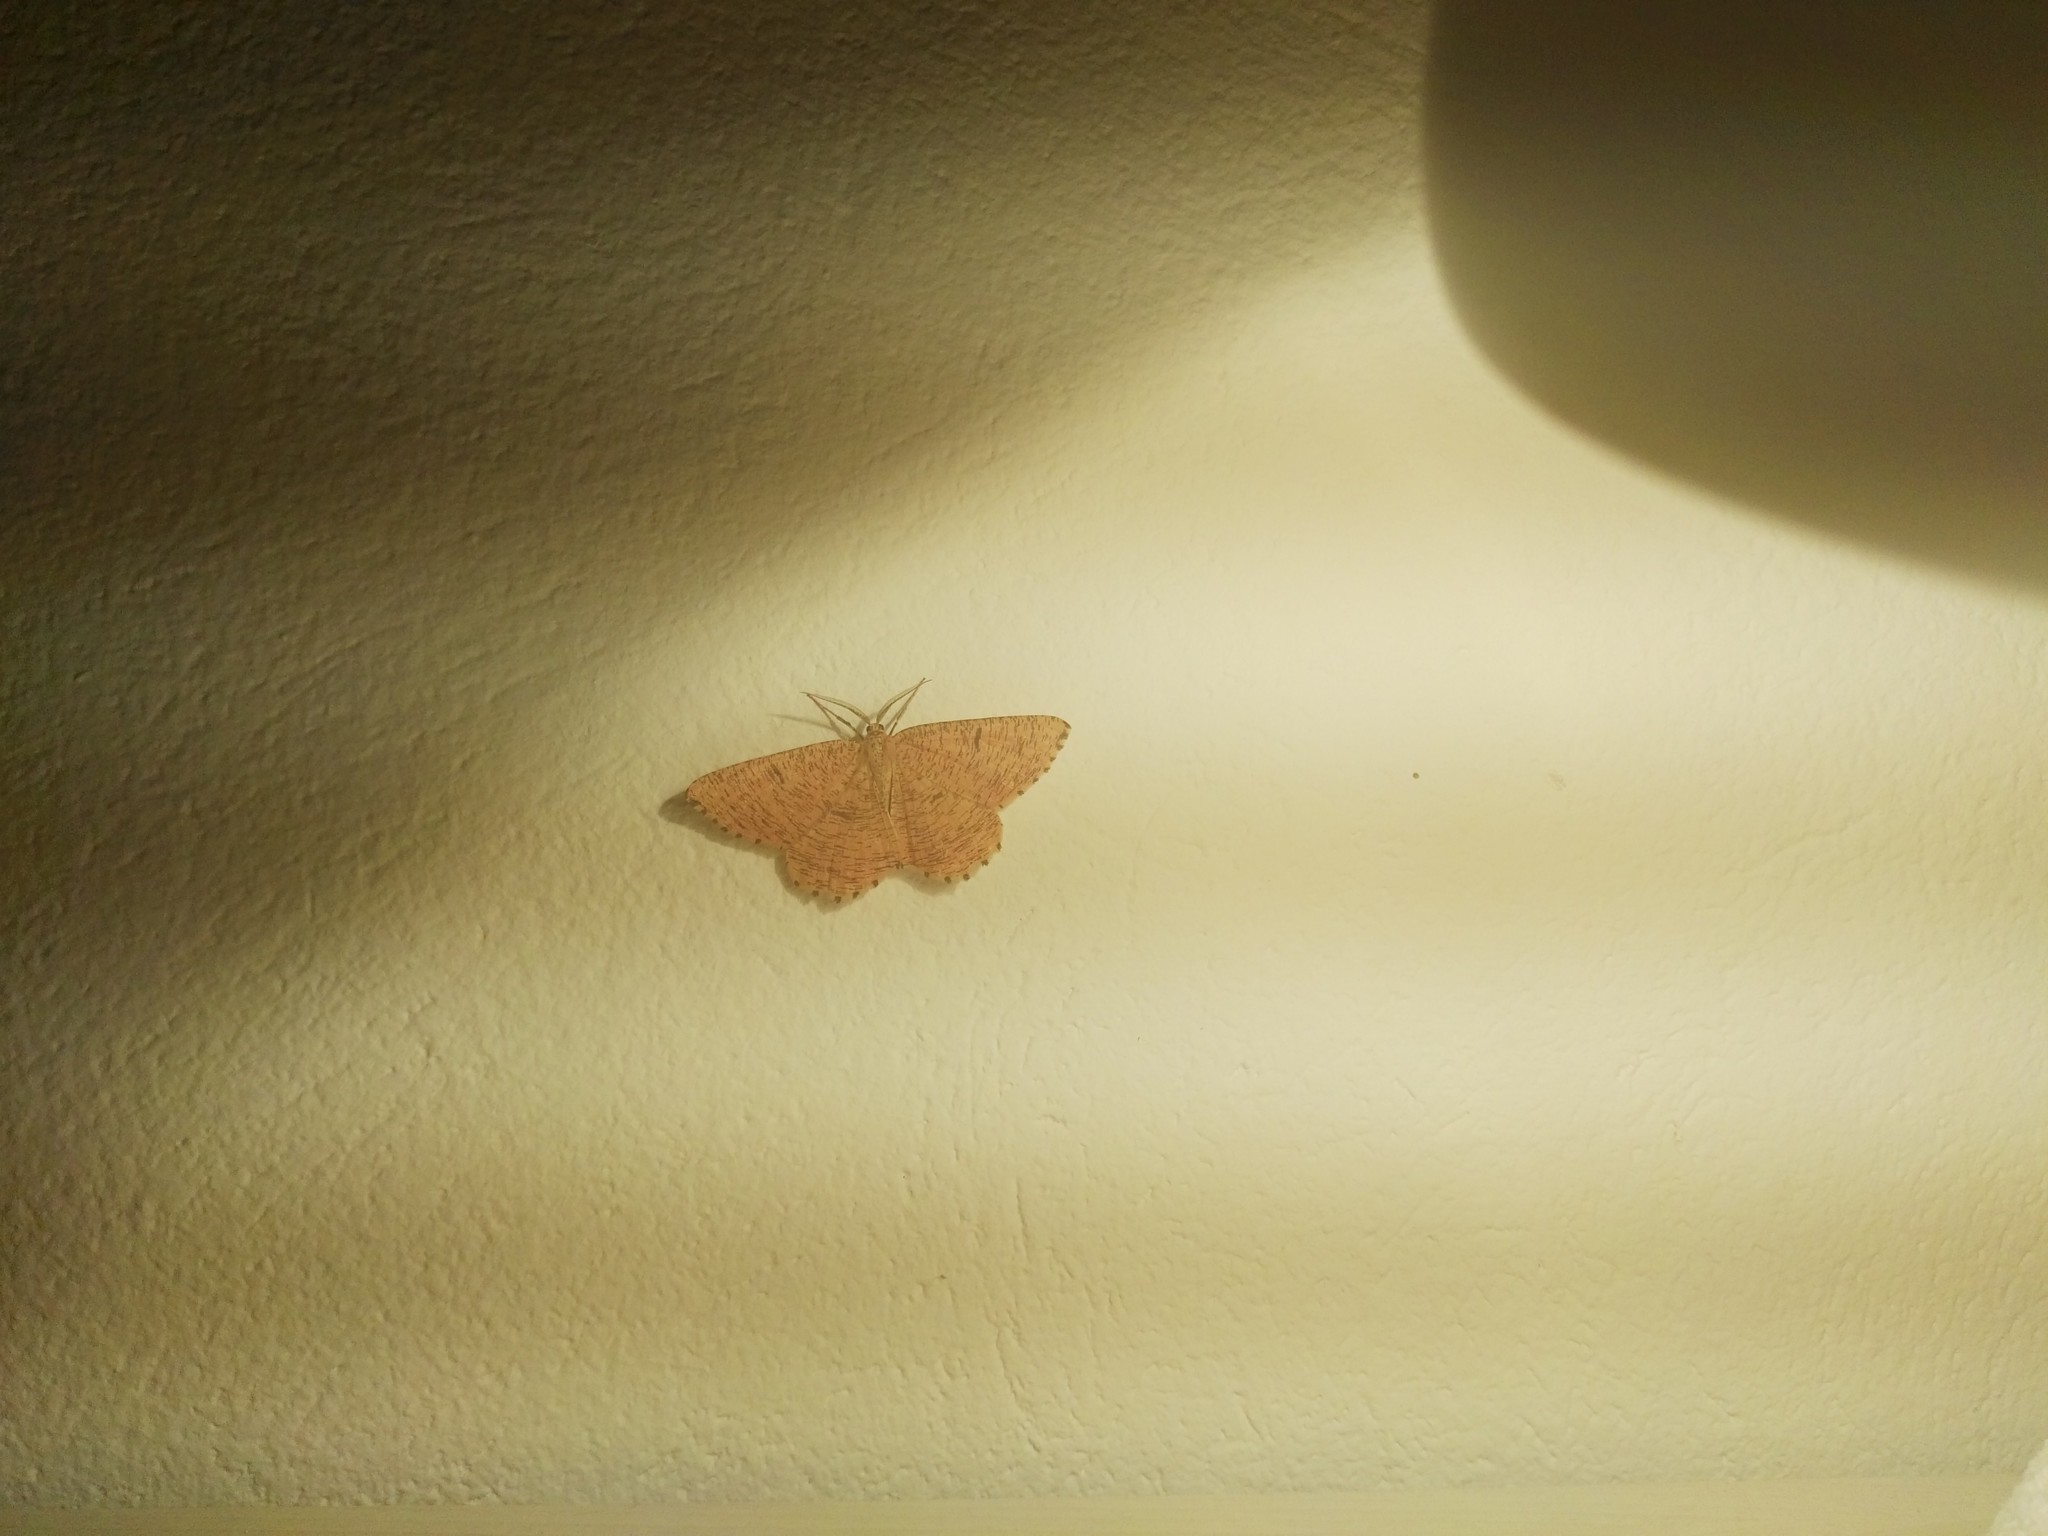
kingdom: Animalia
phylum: Arthropoda
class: Insecta
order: Lepidoptera
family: Geometridae
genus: Angerona
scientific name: Angerona prunaria
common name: Orange moth
